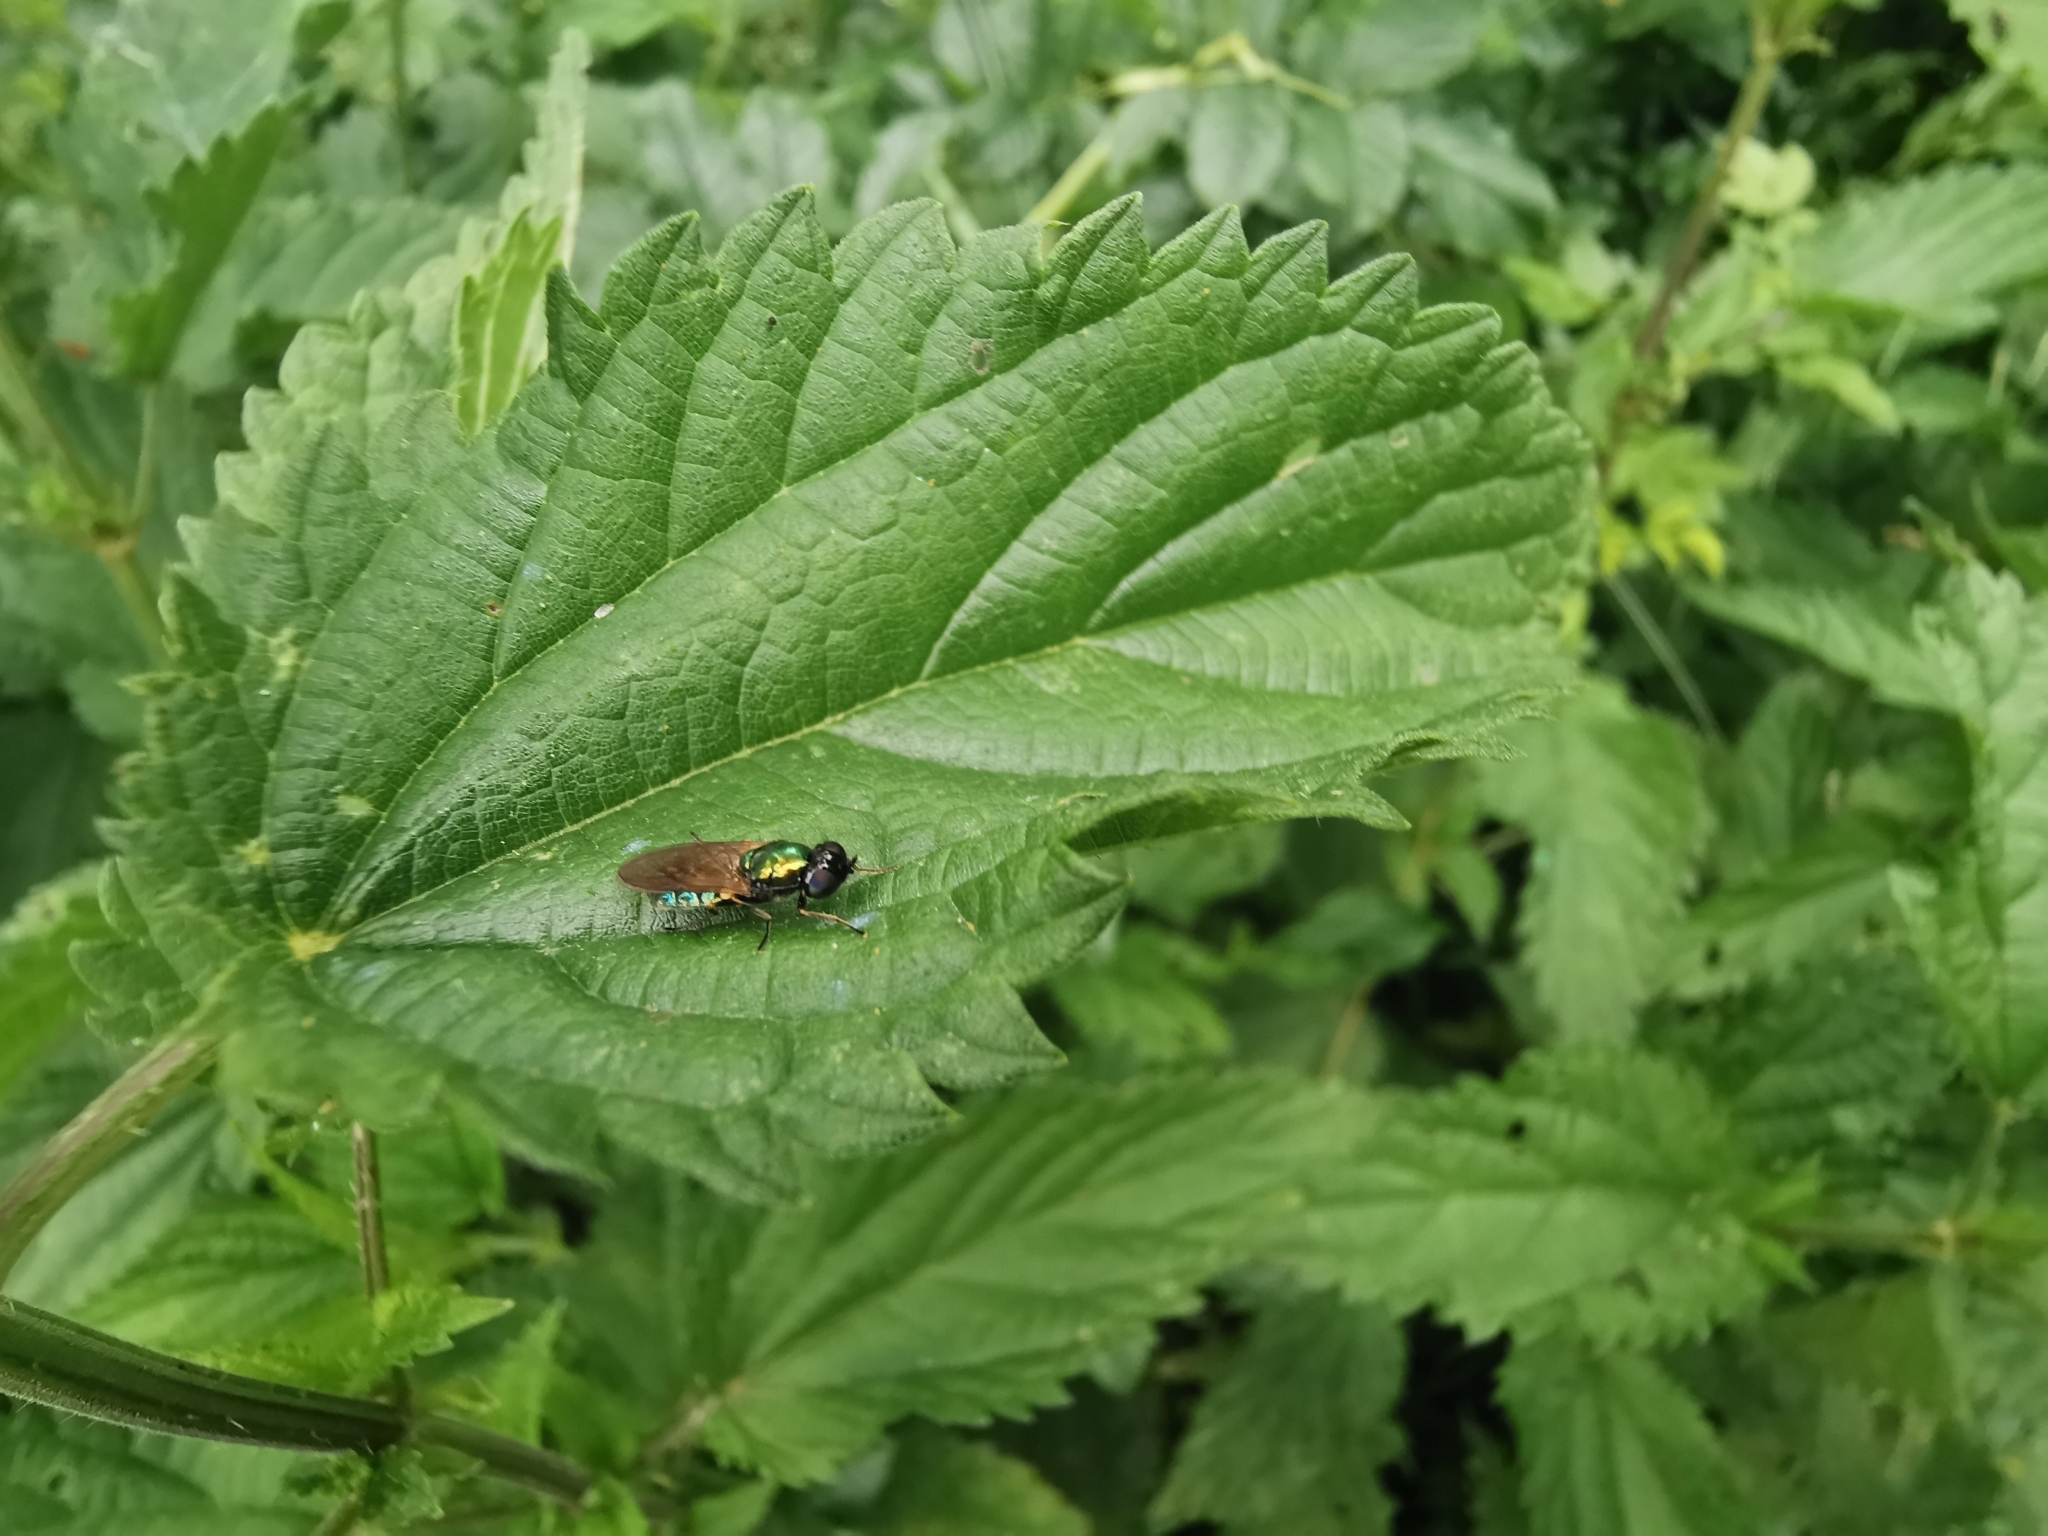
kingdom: Animalia
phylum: Arthropoda
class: Insecta
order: Diptera
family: Stratiomyidae
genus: Chloromyia
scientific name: Chloromyia formosa
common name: Soldier fly
